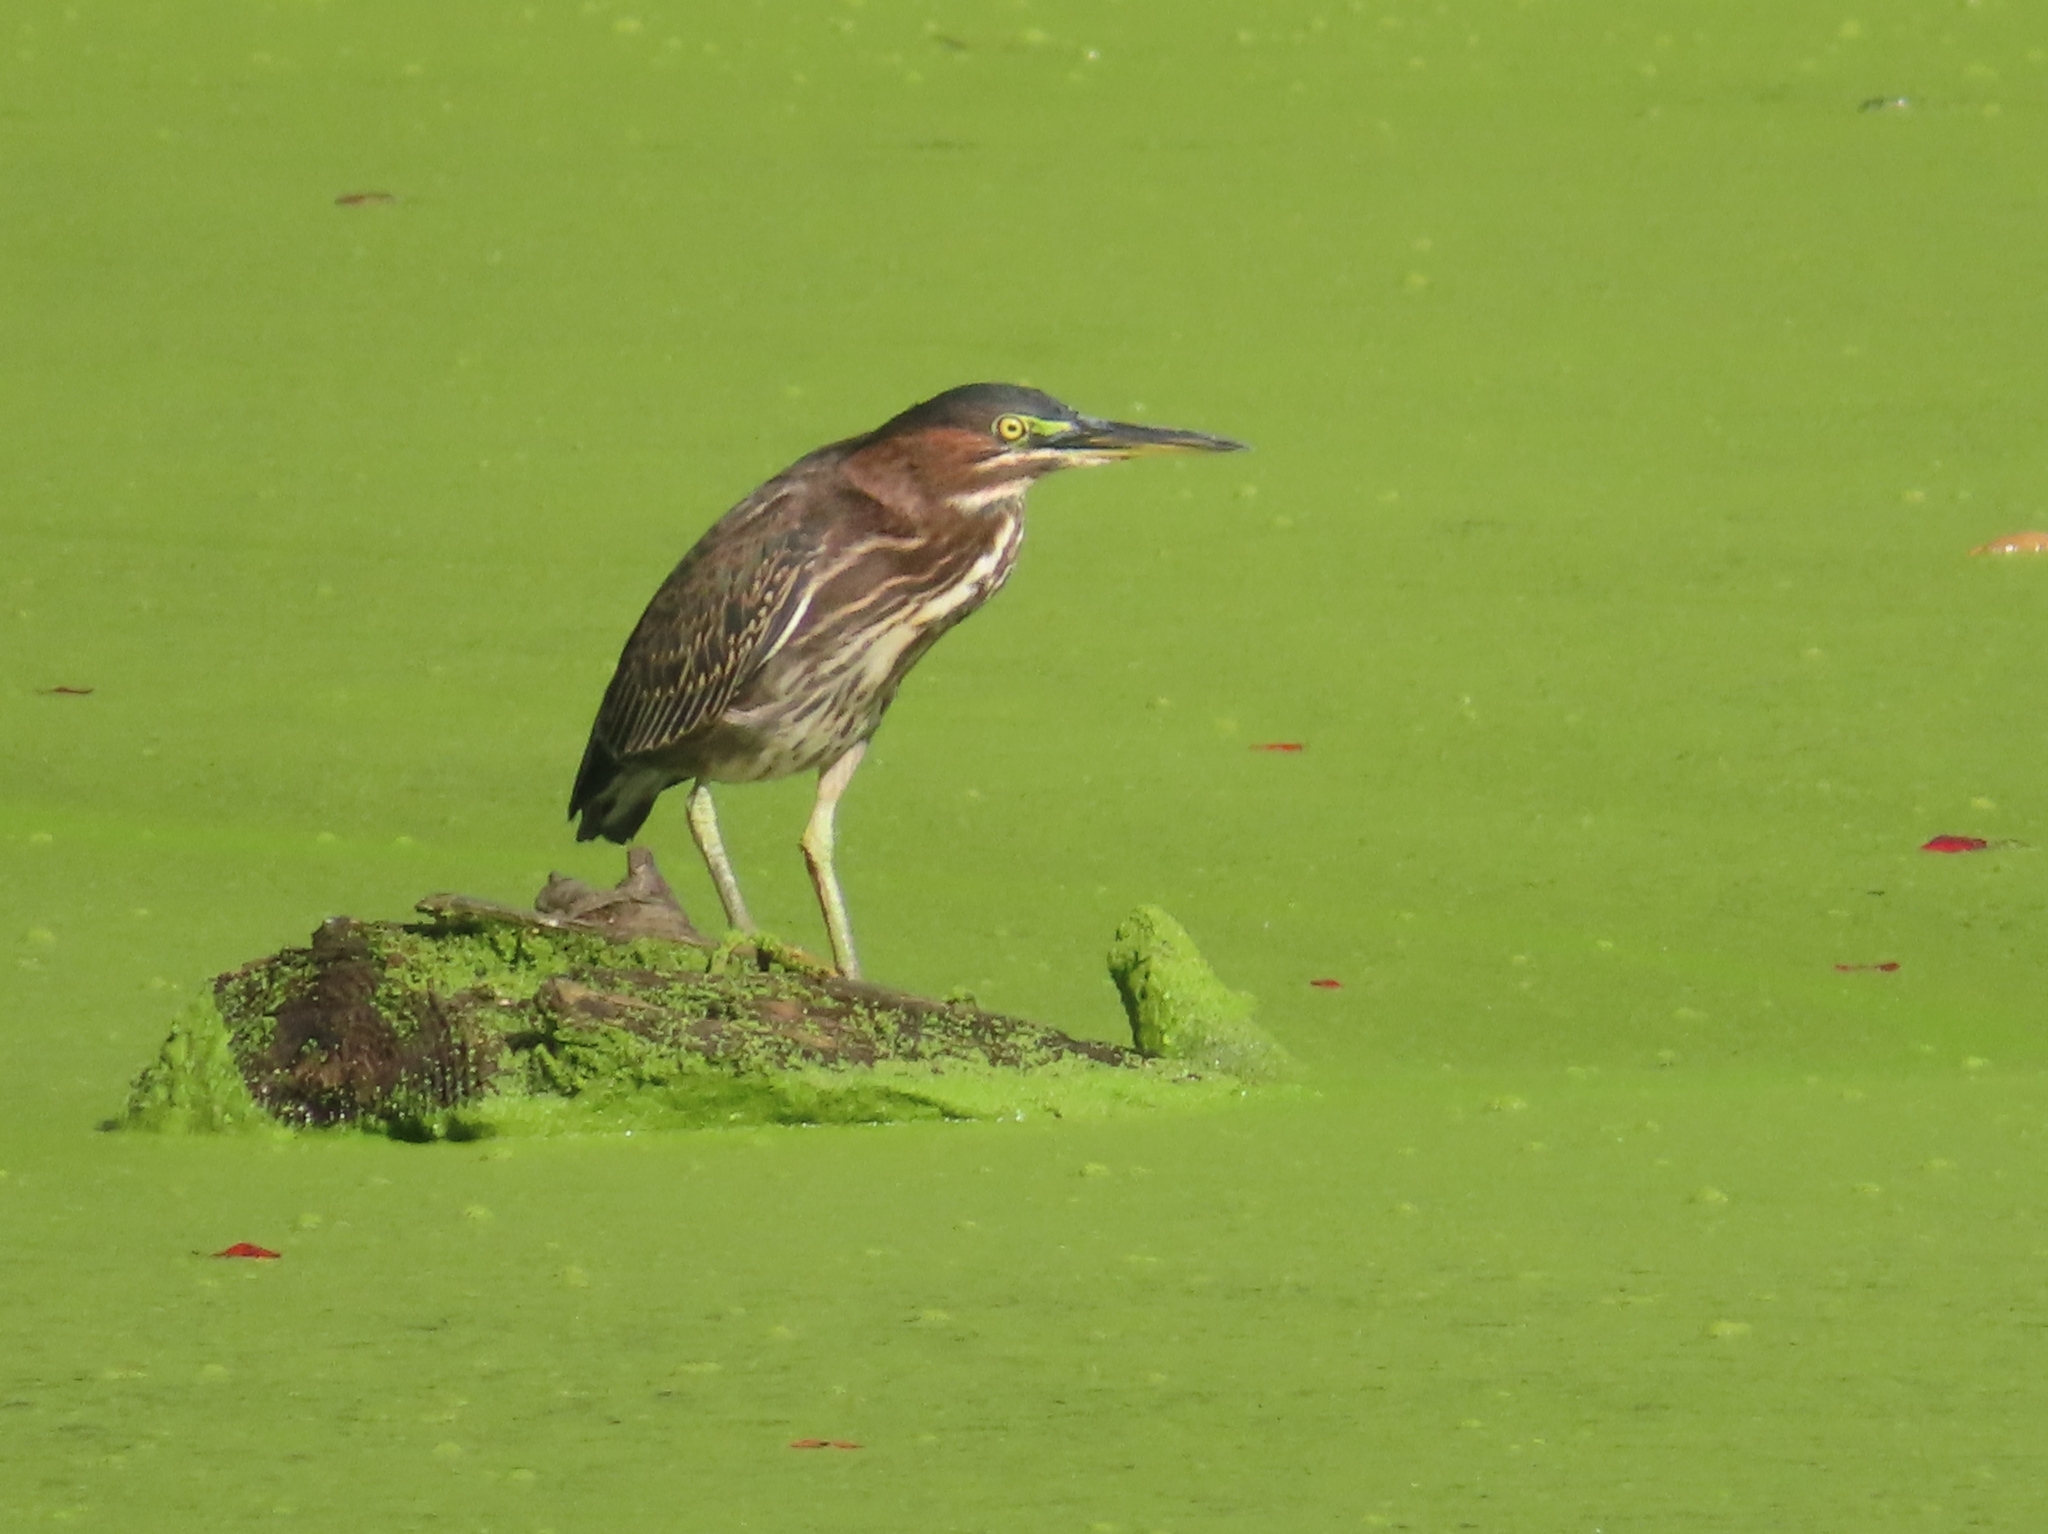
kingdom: Animalia
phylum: Chordata
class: Aves
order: Pelecaniformes
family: Ardeidae
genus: Butorides
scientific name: Butorides virescens
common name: Green heron
